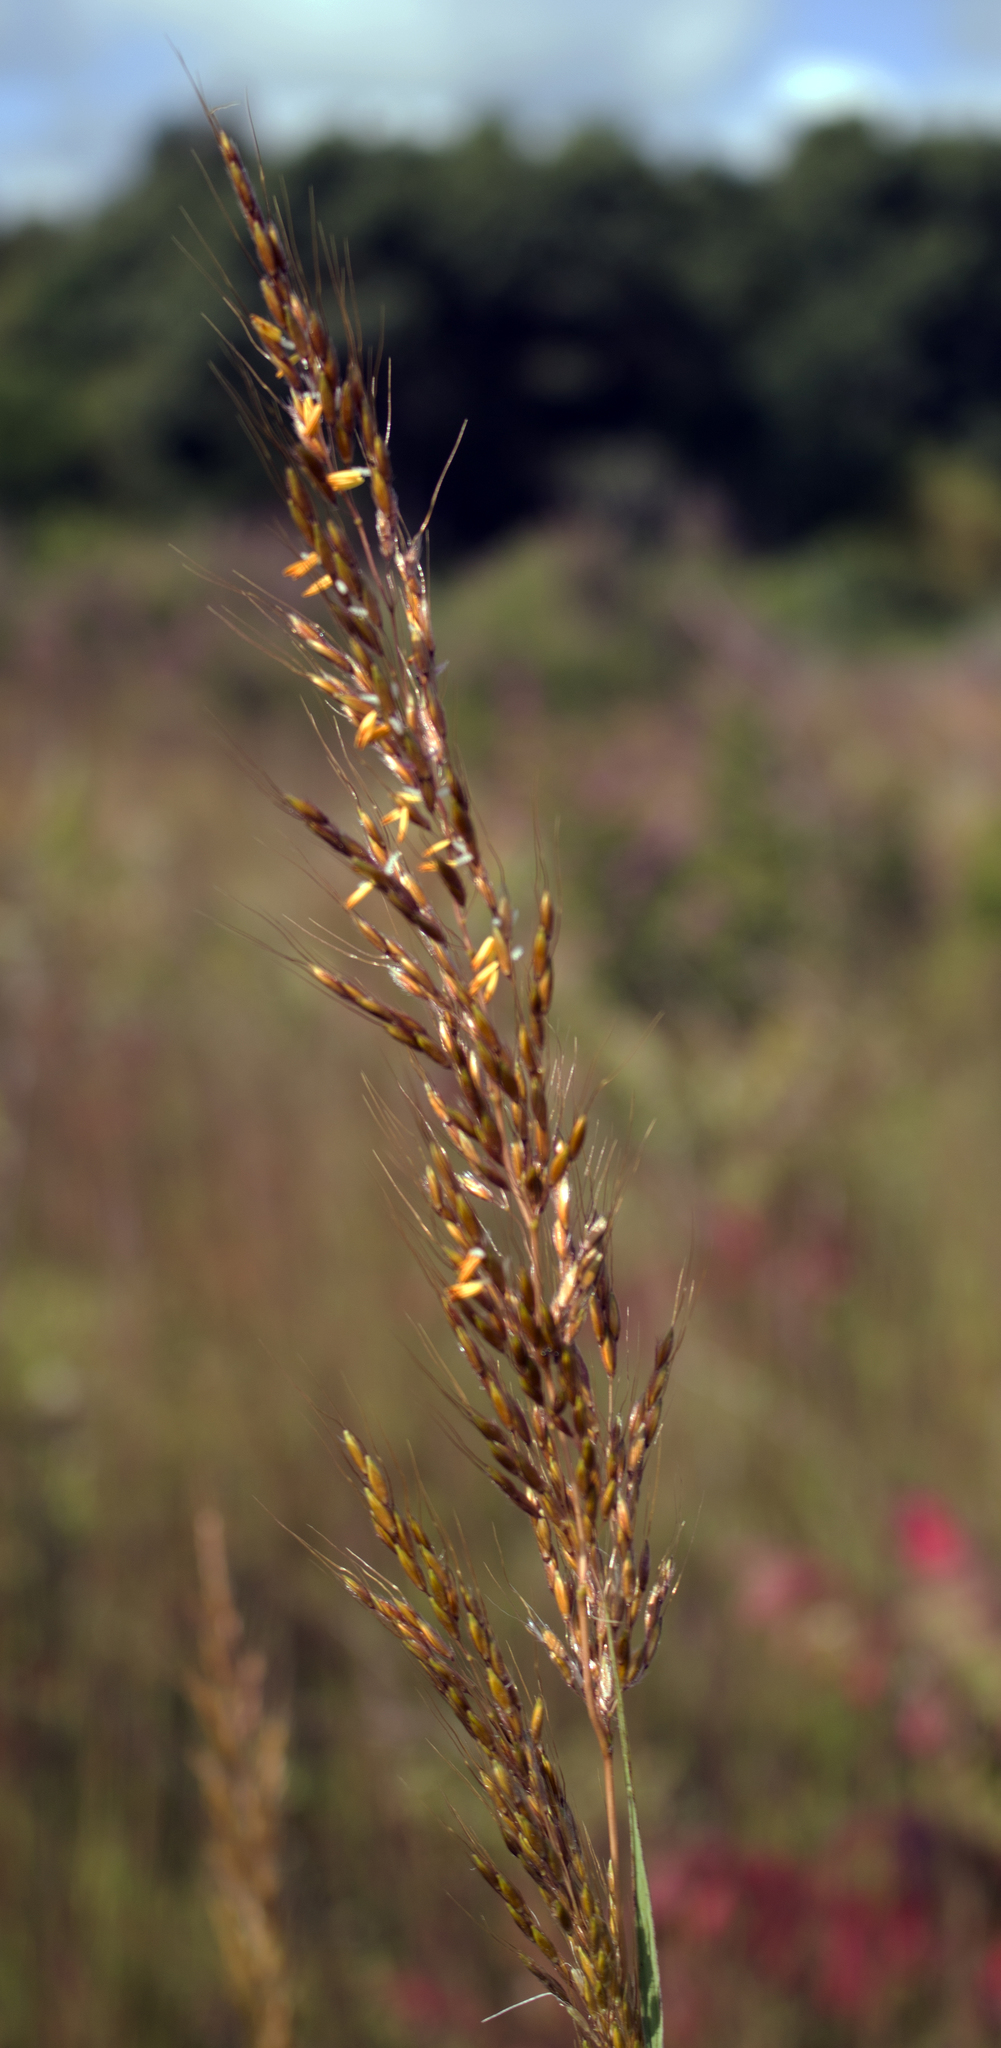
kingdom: Plantae
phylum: Tracheophyta
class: Liliopsida
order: Poales
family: Poaceae
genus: Sorghastrum
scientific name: Sorghastrum nutans
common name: Indian grass
